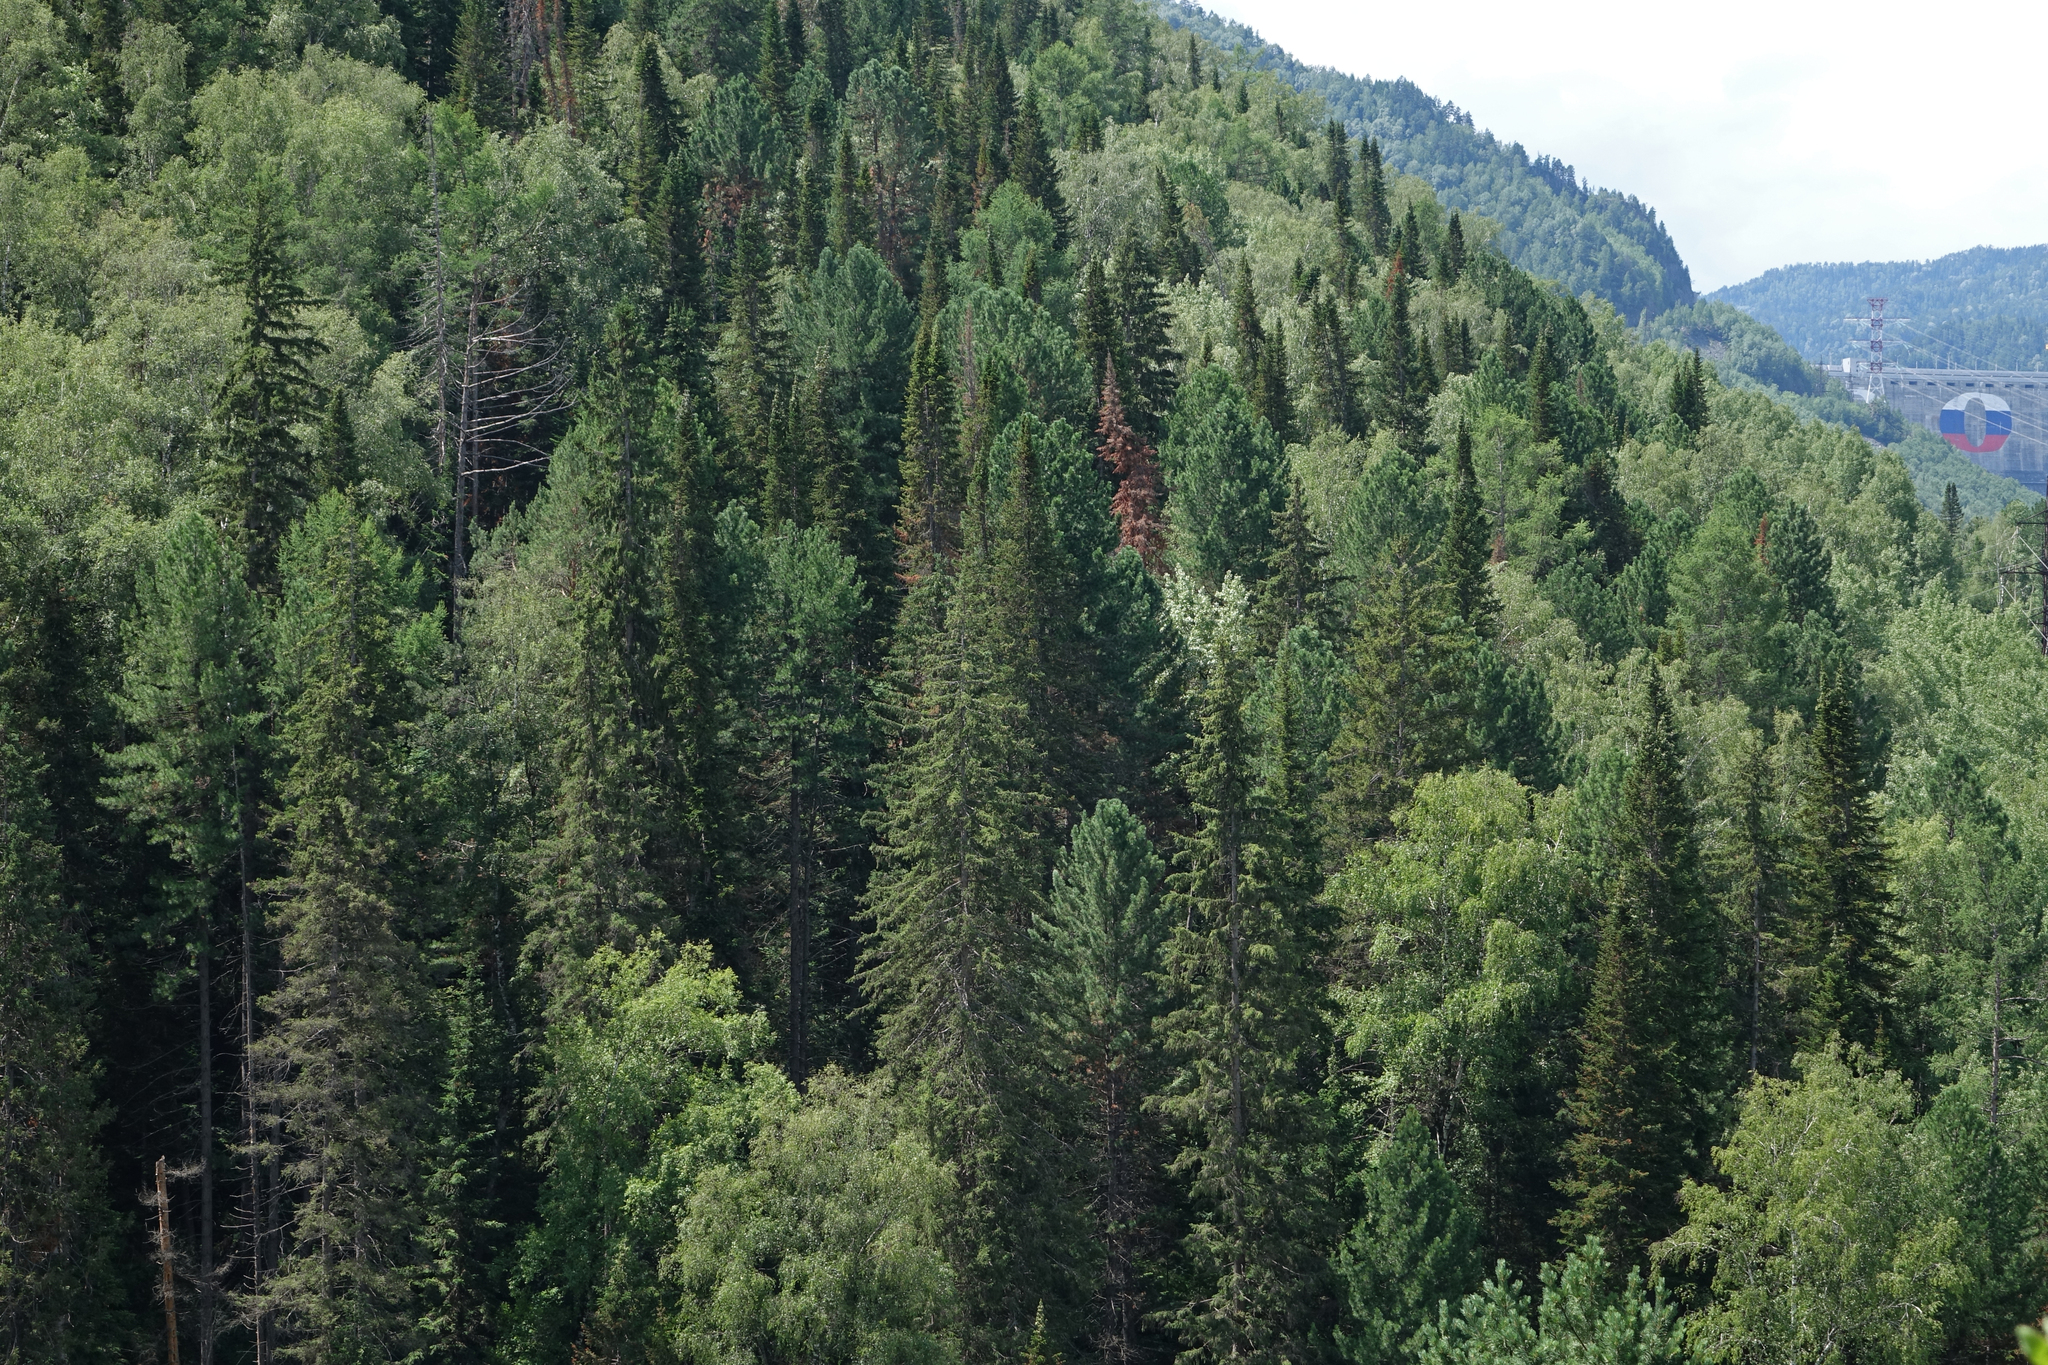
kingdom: Plantae
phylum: Tracheophyta
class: Pinopsida
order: Pinales
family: Pinaceae
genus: Abies
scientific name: Abies sibirica
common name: Siberian fir
